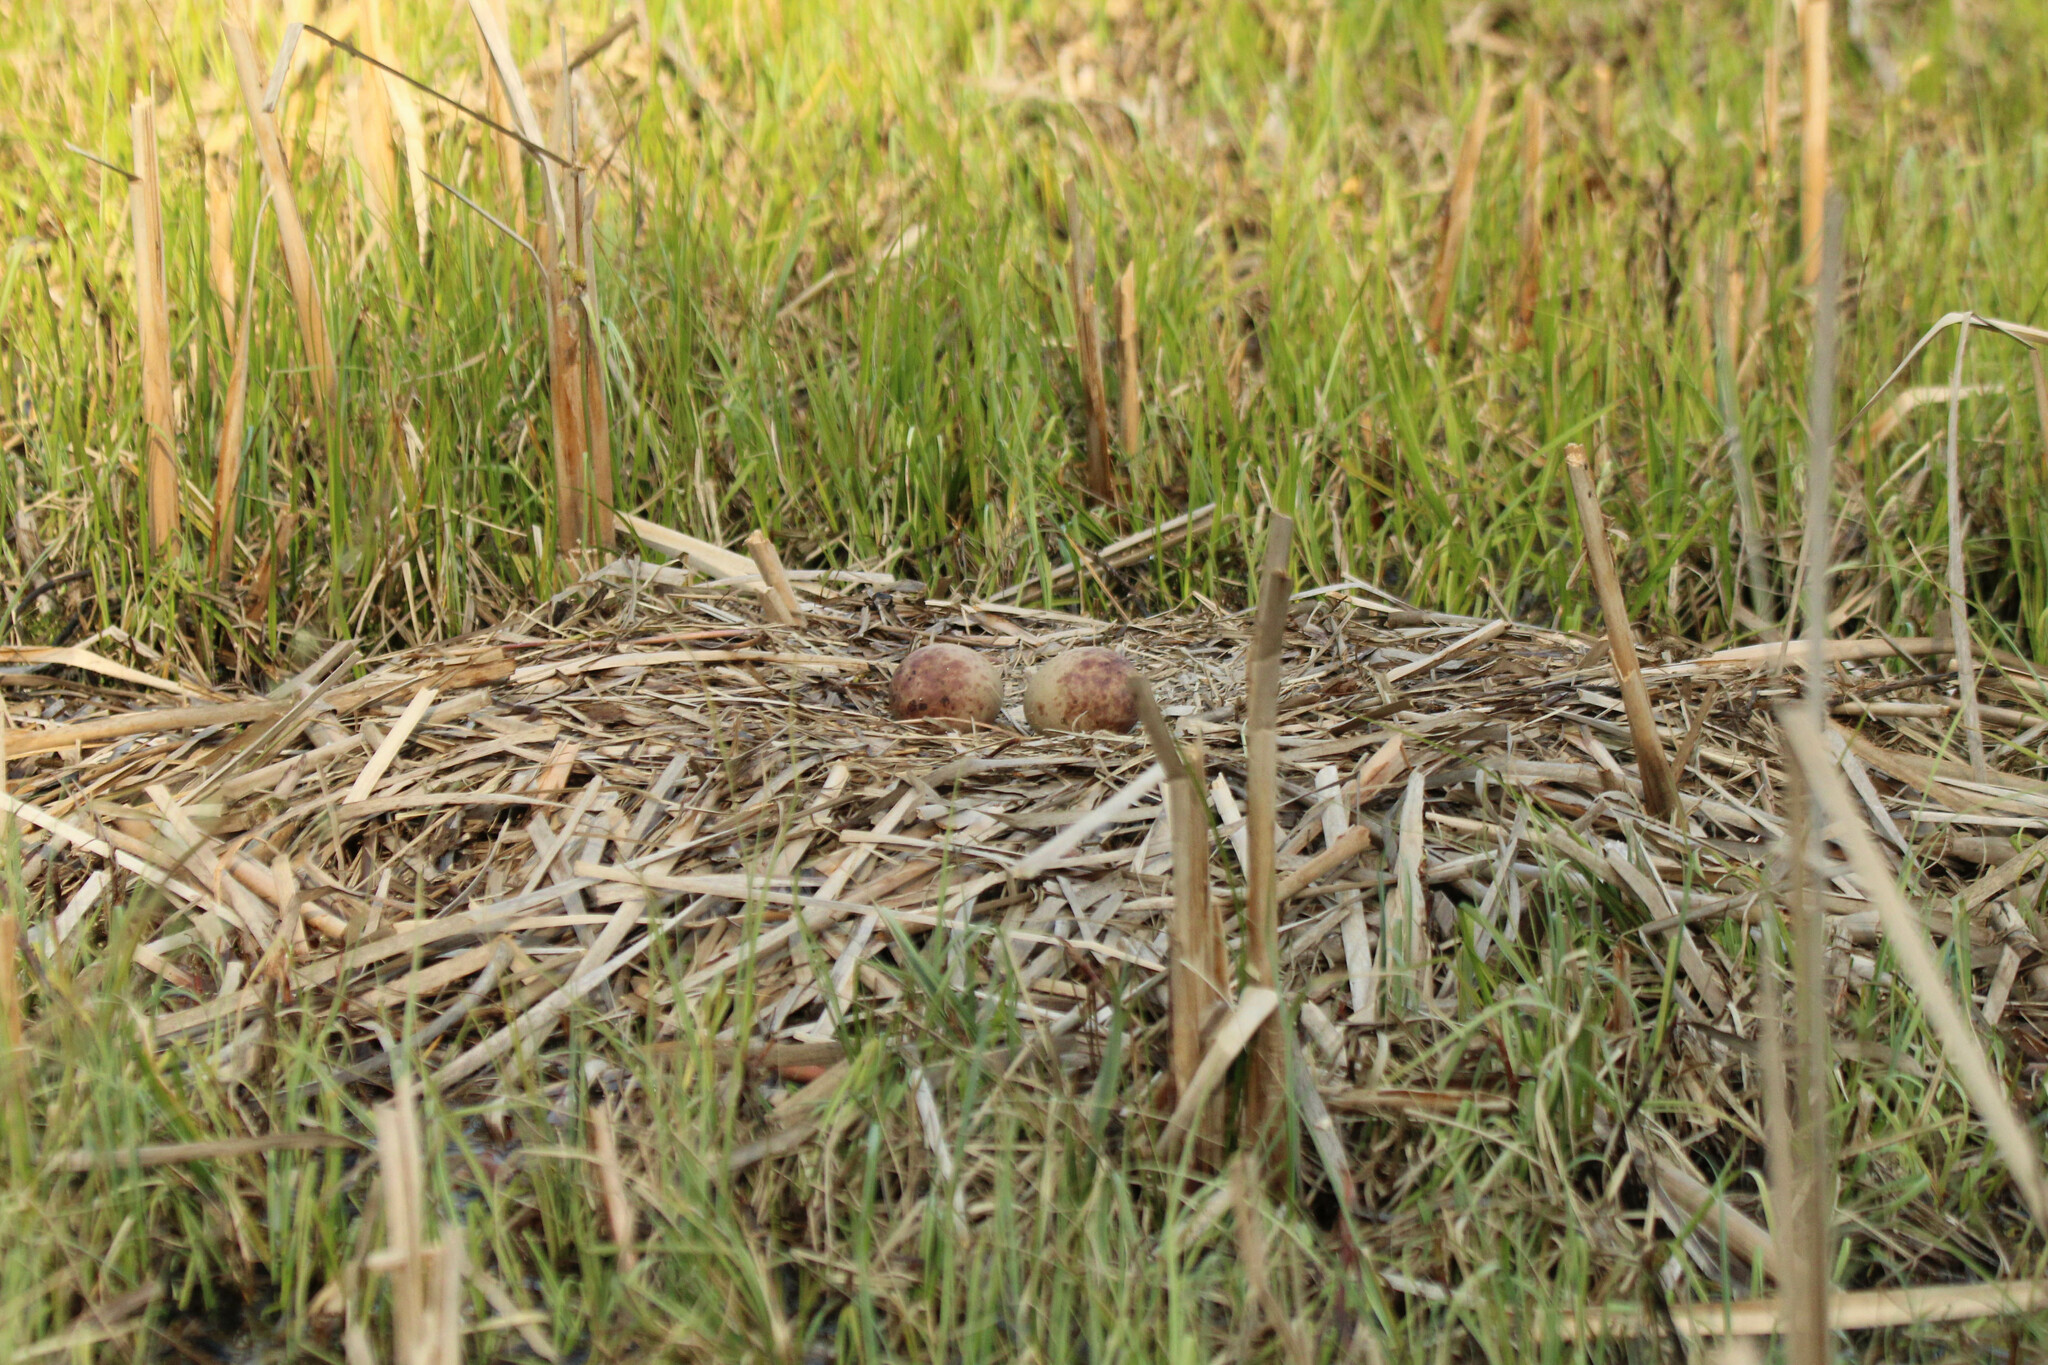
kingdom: Animalia
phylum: Chordata
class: Aves
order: Gruiformes
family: Gruidae
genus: Grus
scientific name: Grus grus
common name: Common crane
